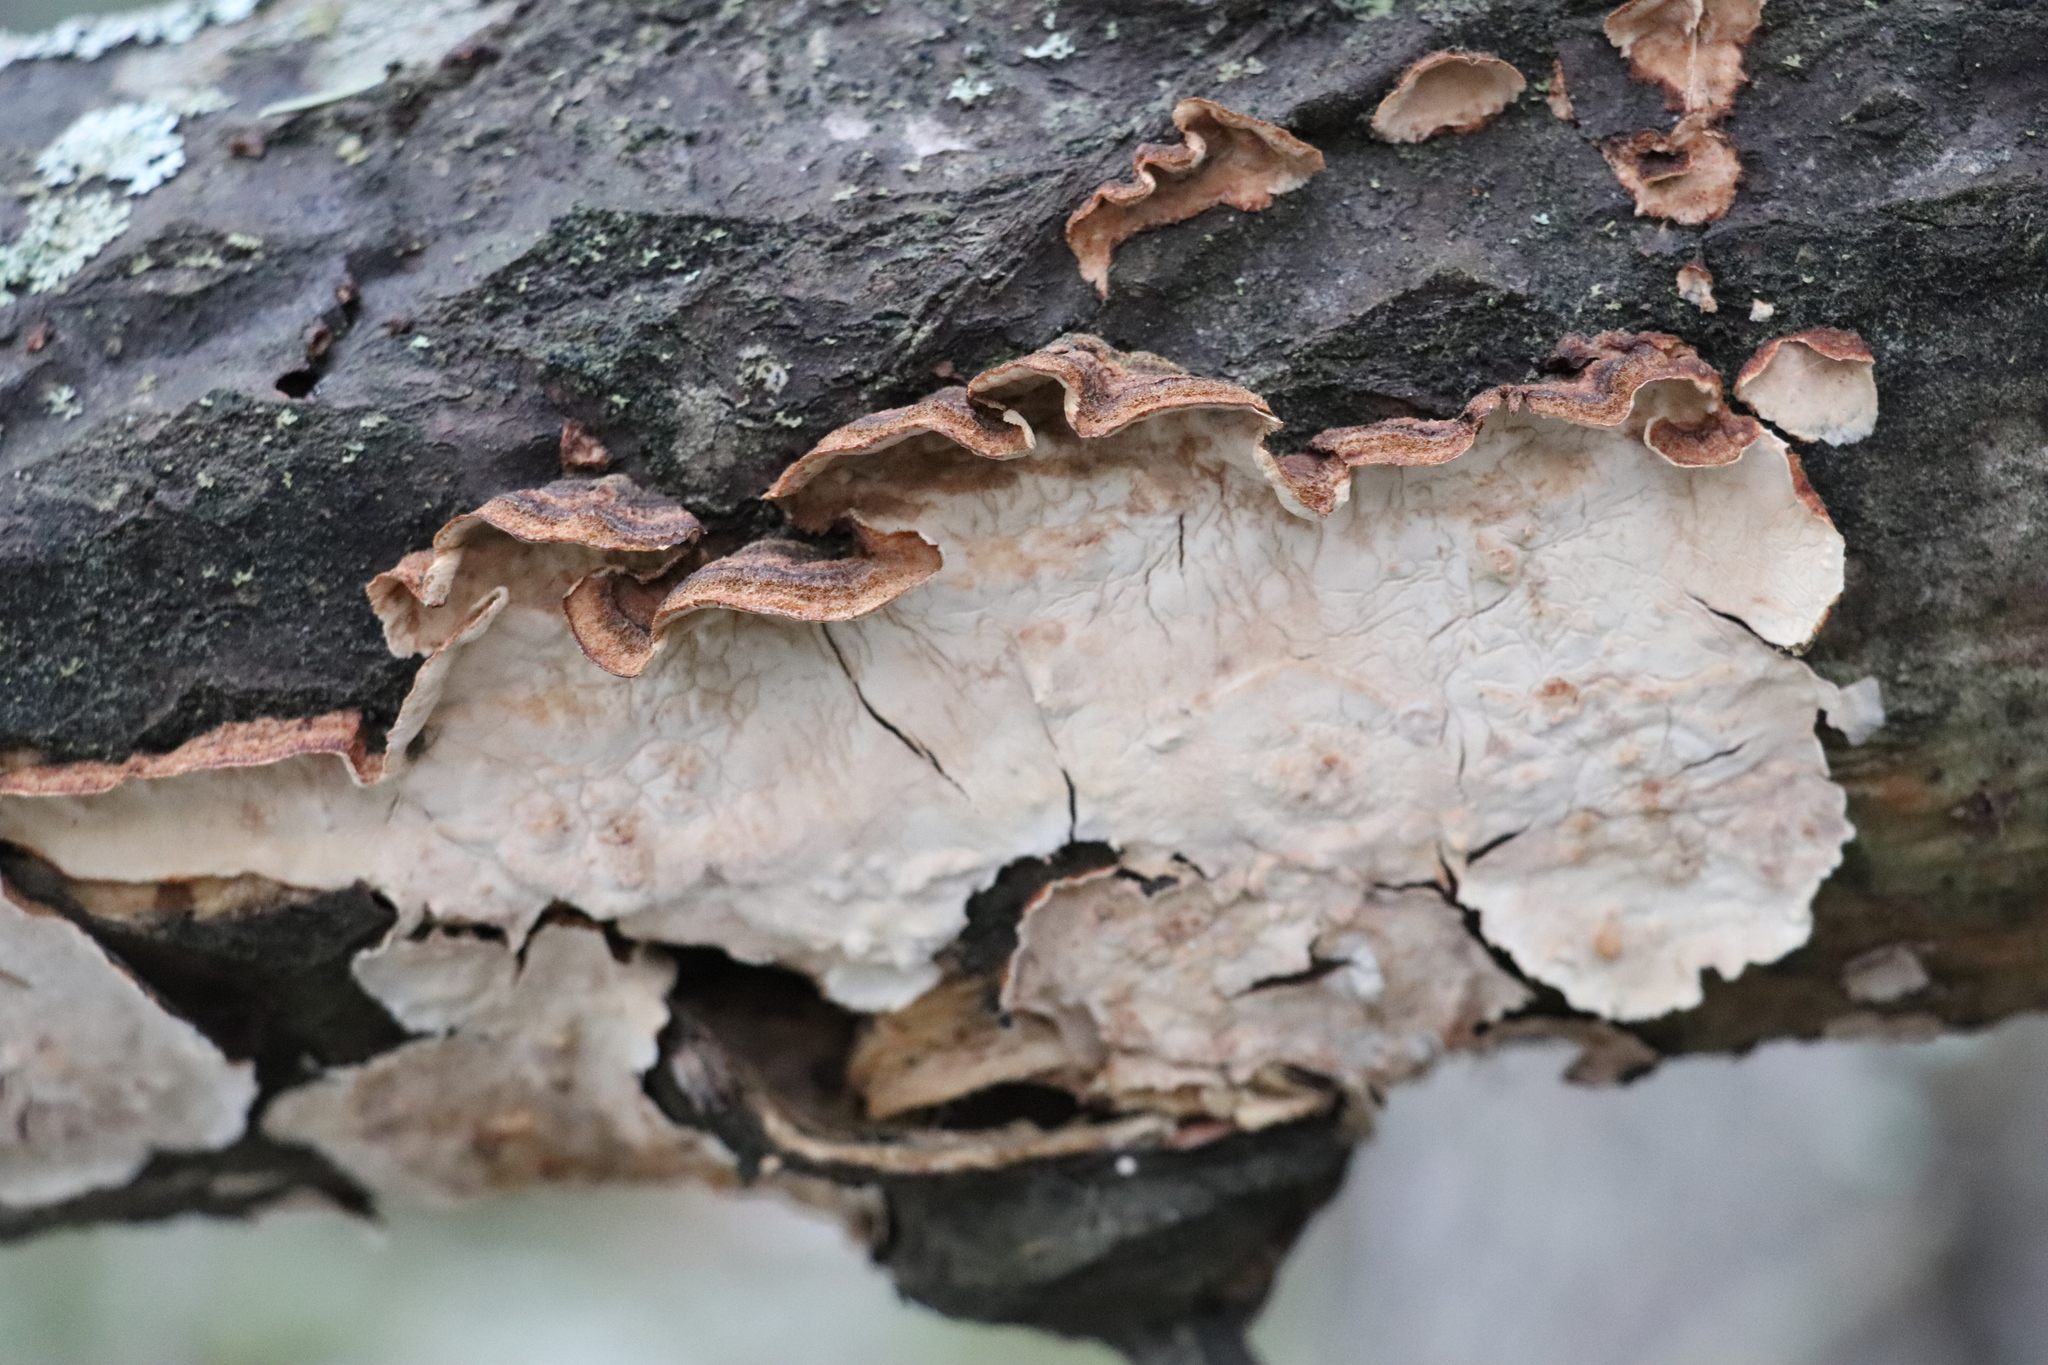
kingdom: Fungi
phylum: Basidiomycota
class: Agaricomycetes
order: Russulales
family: Hericiaceae
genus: Laxitextum
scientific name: Laxitextum bicolor
